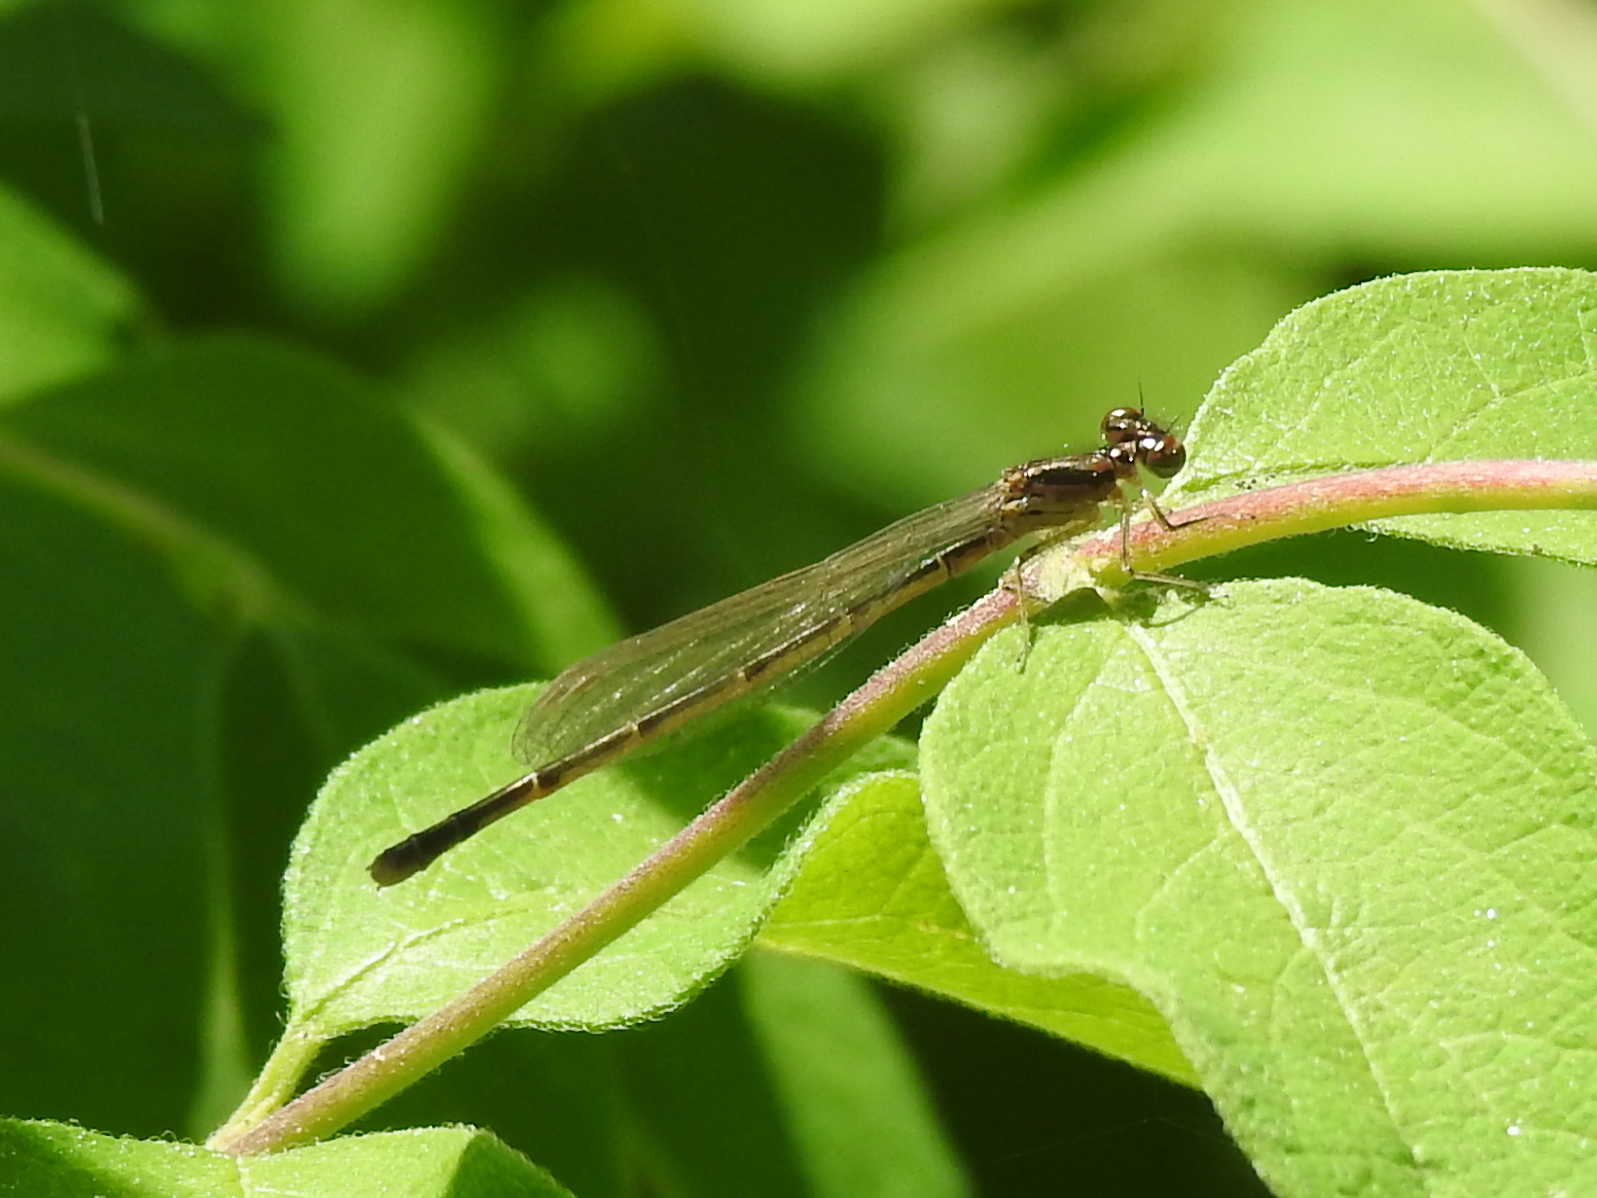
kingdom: Animalia
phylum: Arthropoda
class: Insecta
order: Odonata
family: Coenagrionidae
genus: Ischnura
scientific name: Ischnura posita
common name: Fragile forktail
